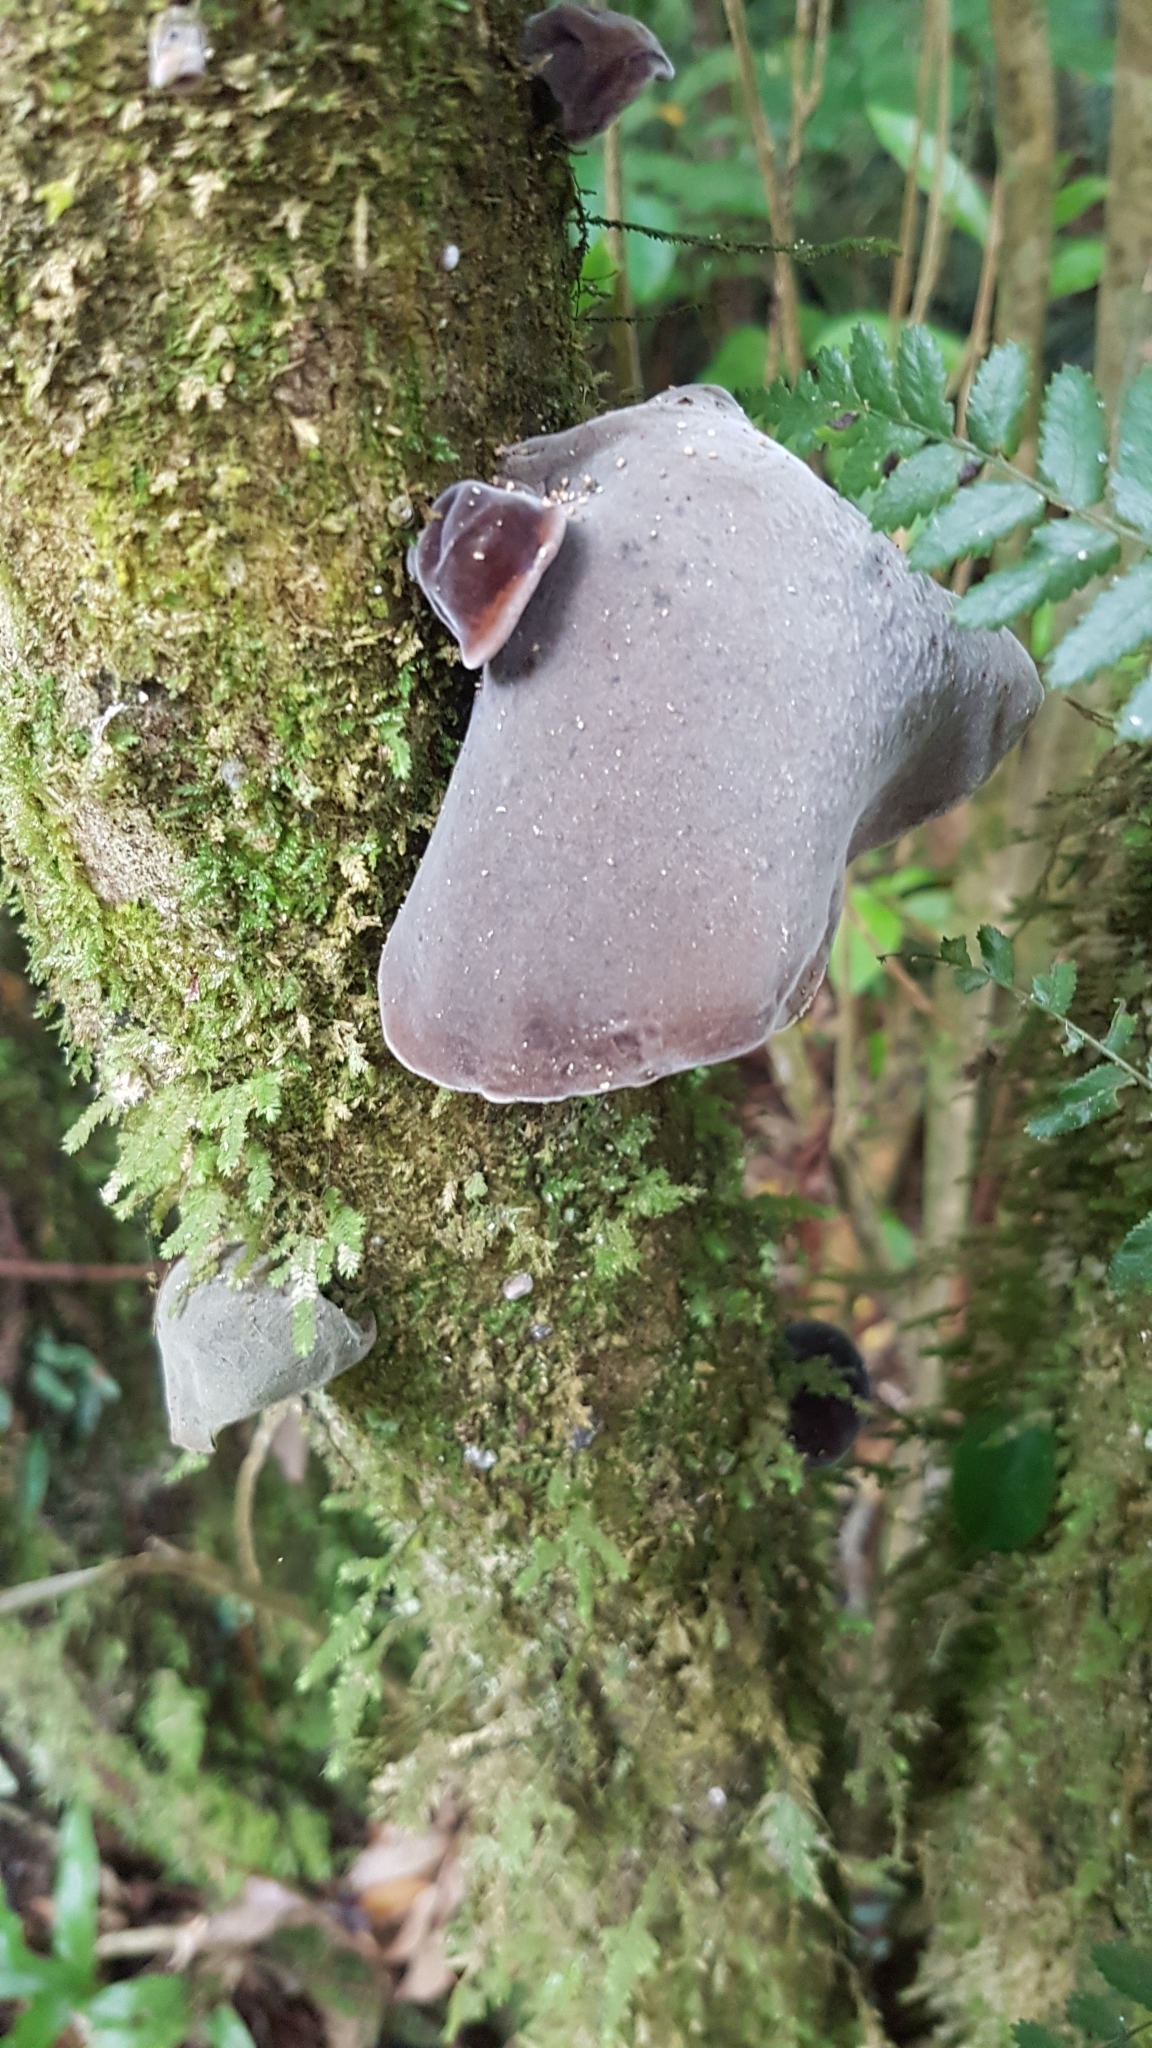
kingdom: Fungi
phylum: Basidiomycota
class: Agaricomycetes
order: Auriculariales
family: Auriculariaceae
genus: Auricularia
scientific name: Auricularia cornea
